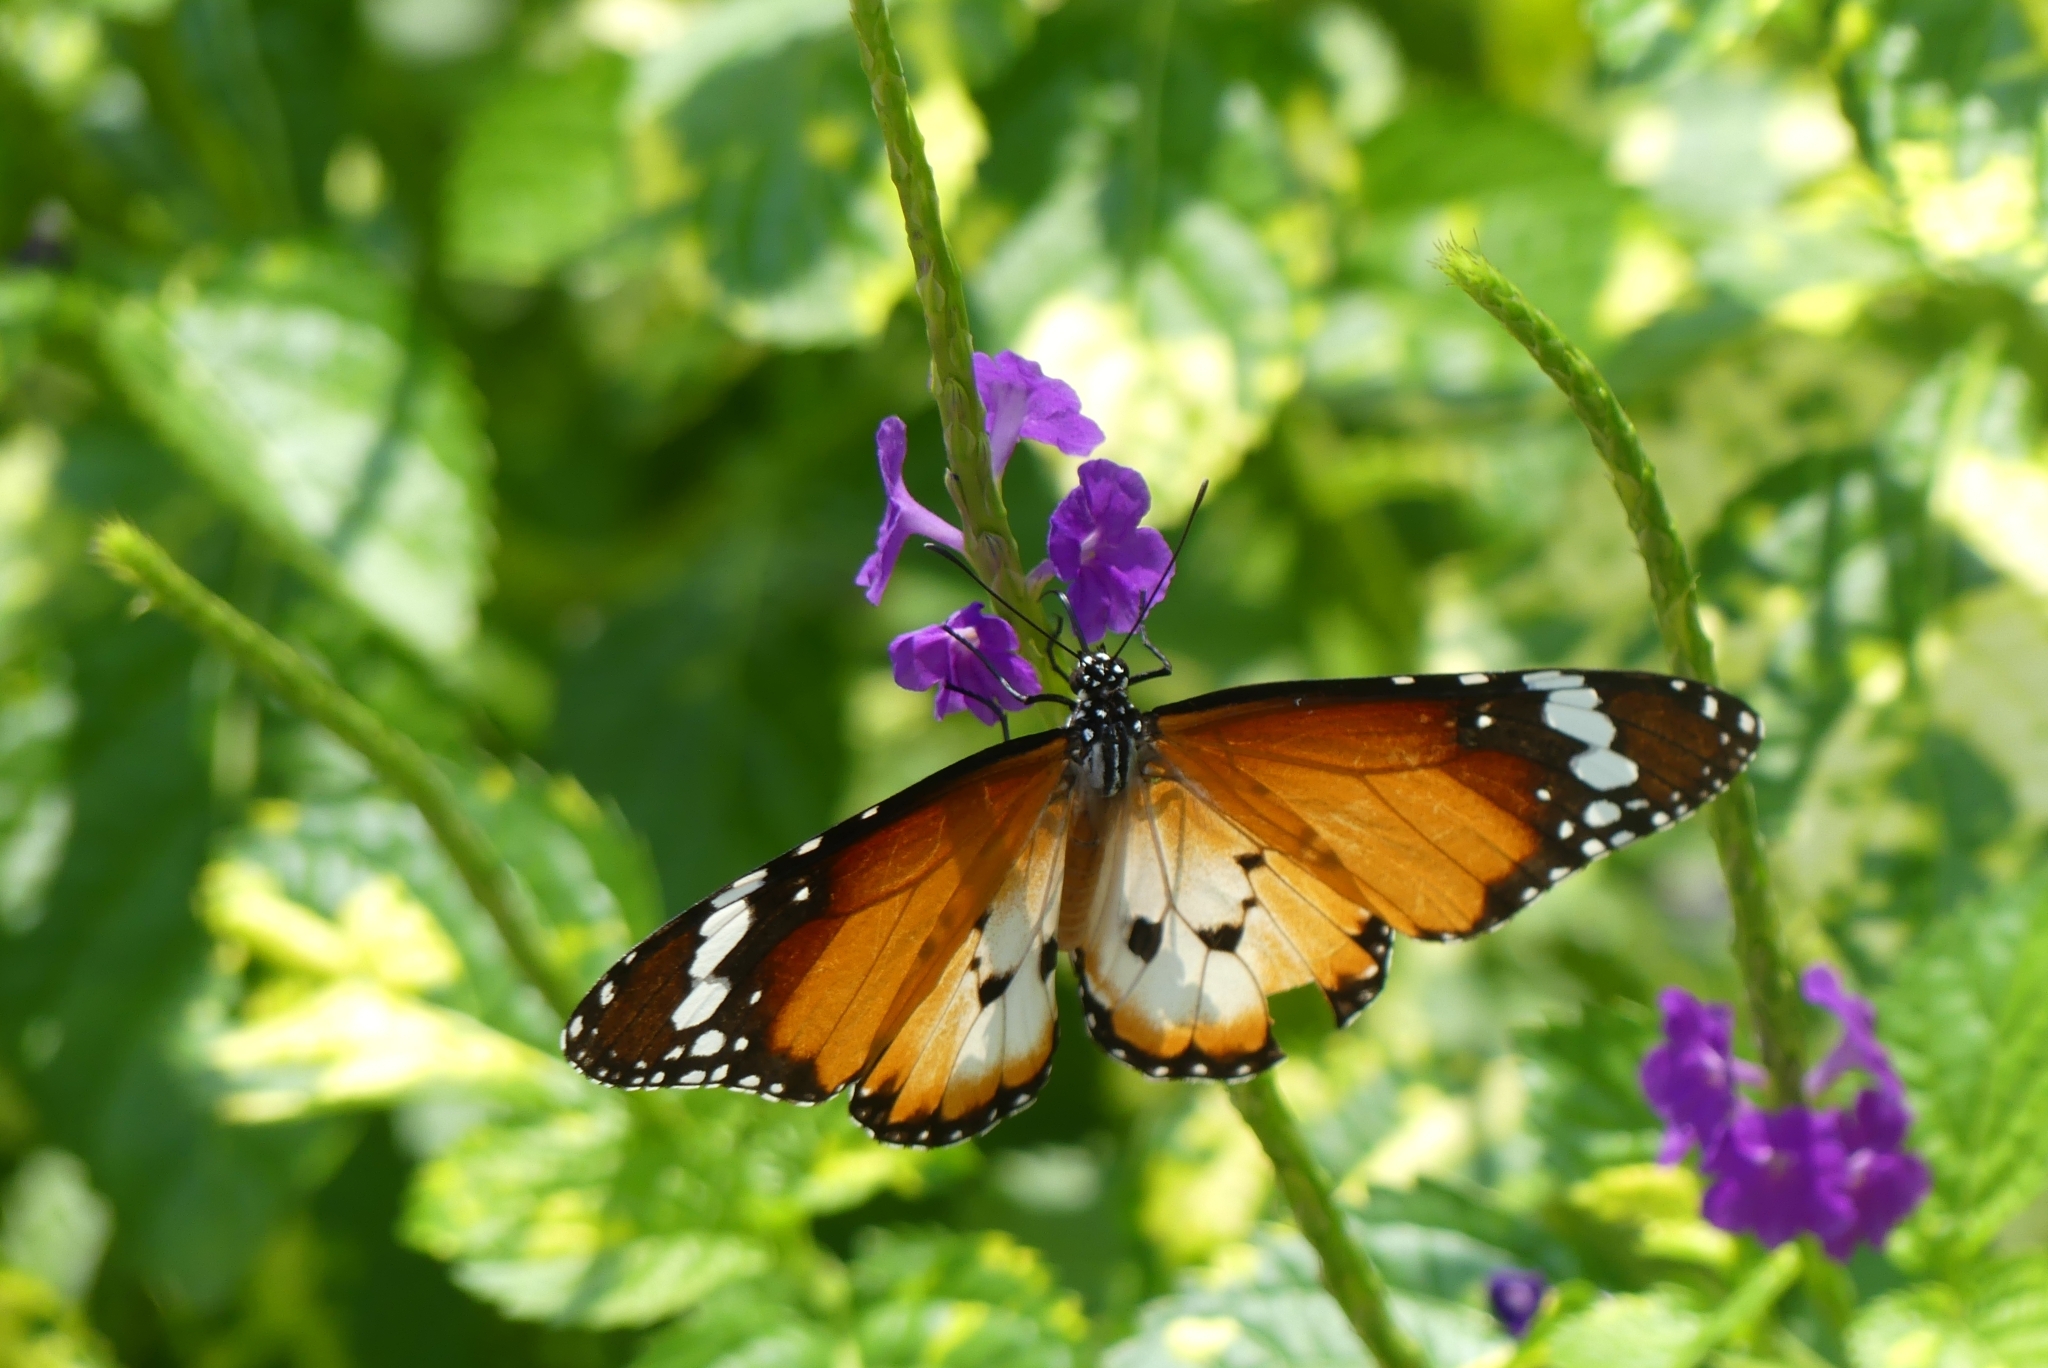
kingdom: Animalia
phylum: Arthropoda
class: Insecta
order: Lepidoptera
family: Nymphalidae
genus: Danaus
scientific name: Danaus chrysippus
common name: Plain tiger
